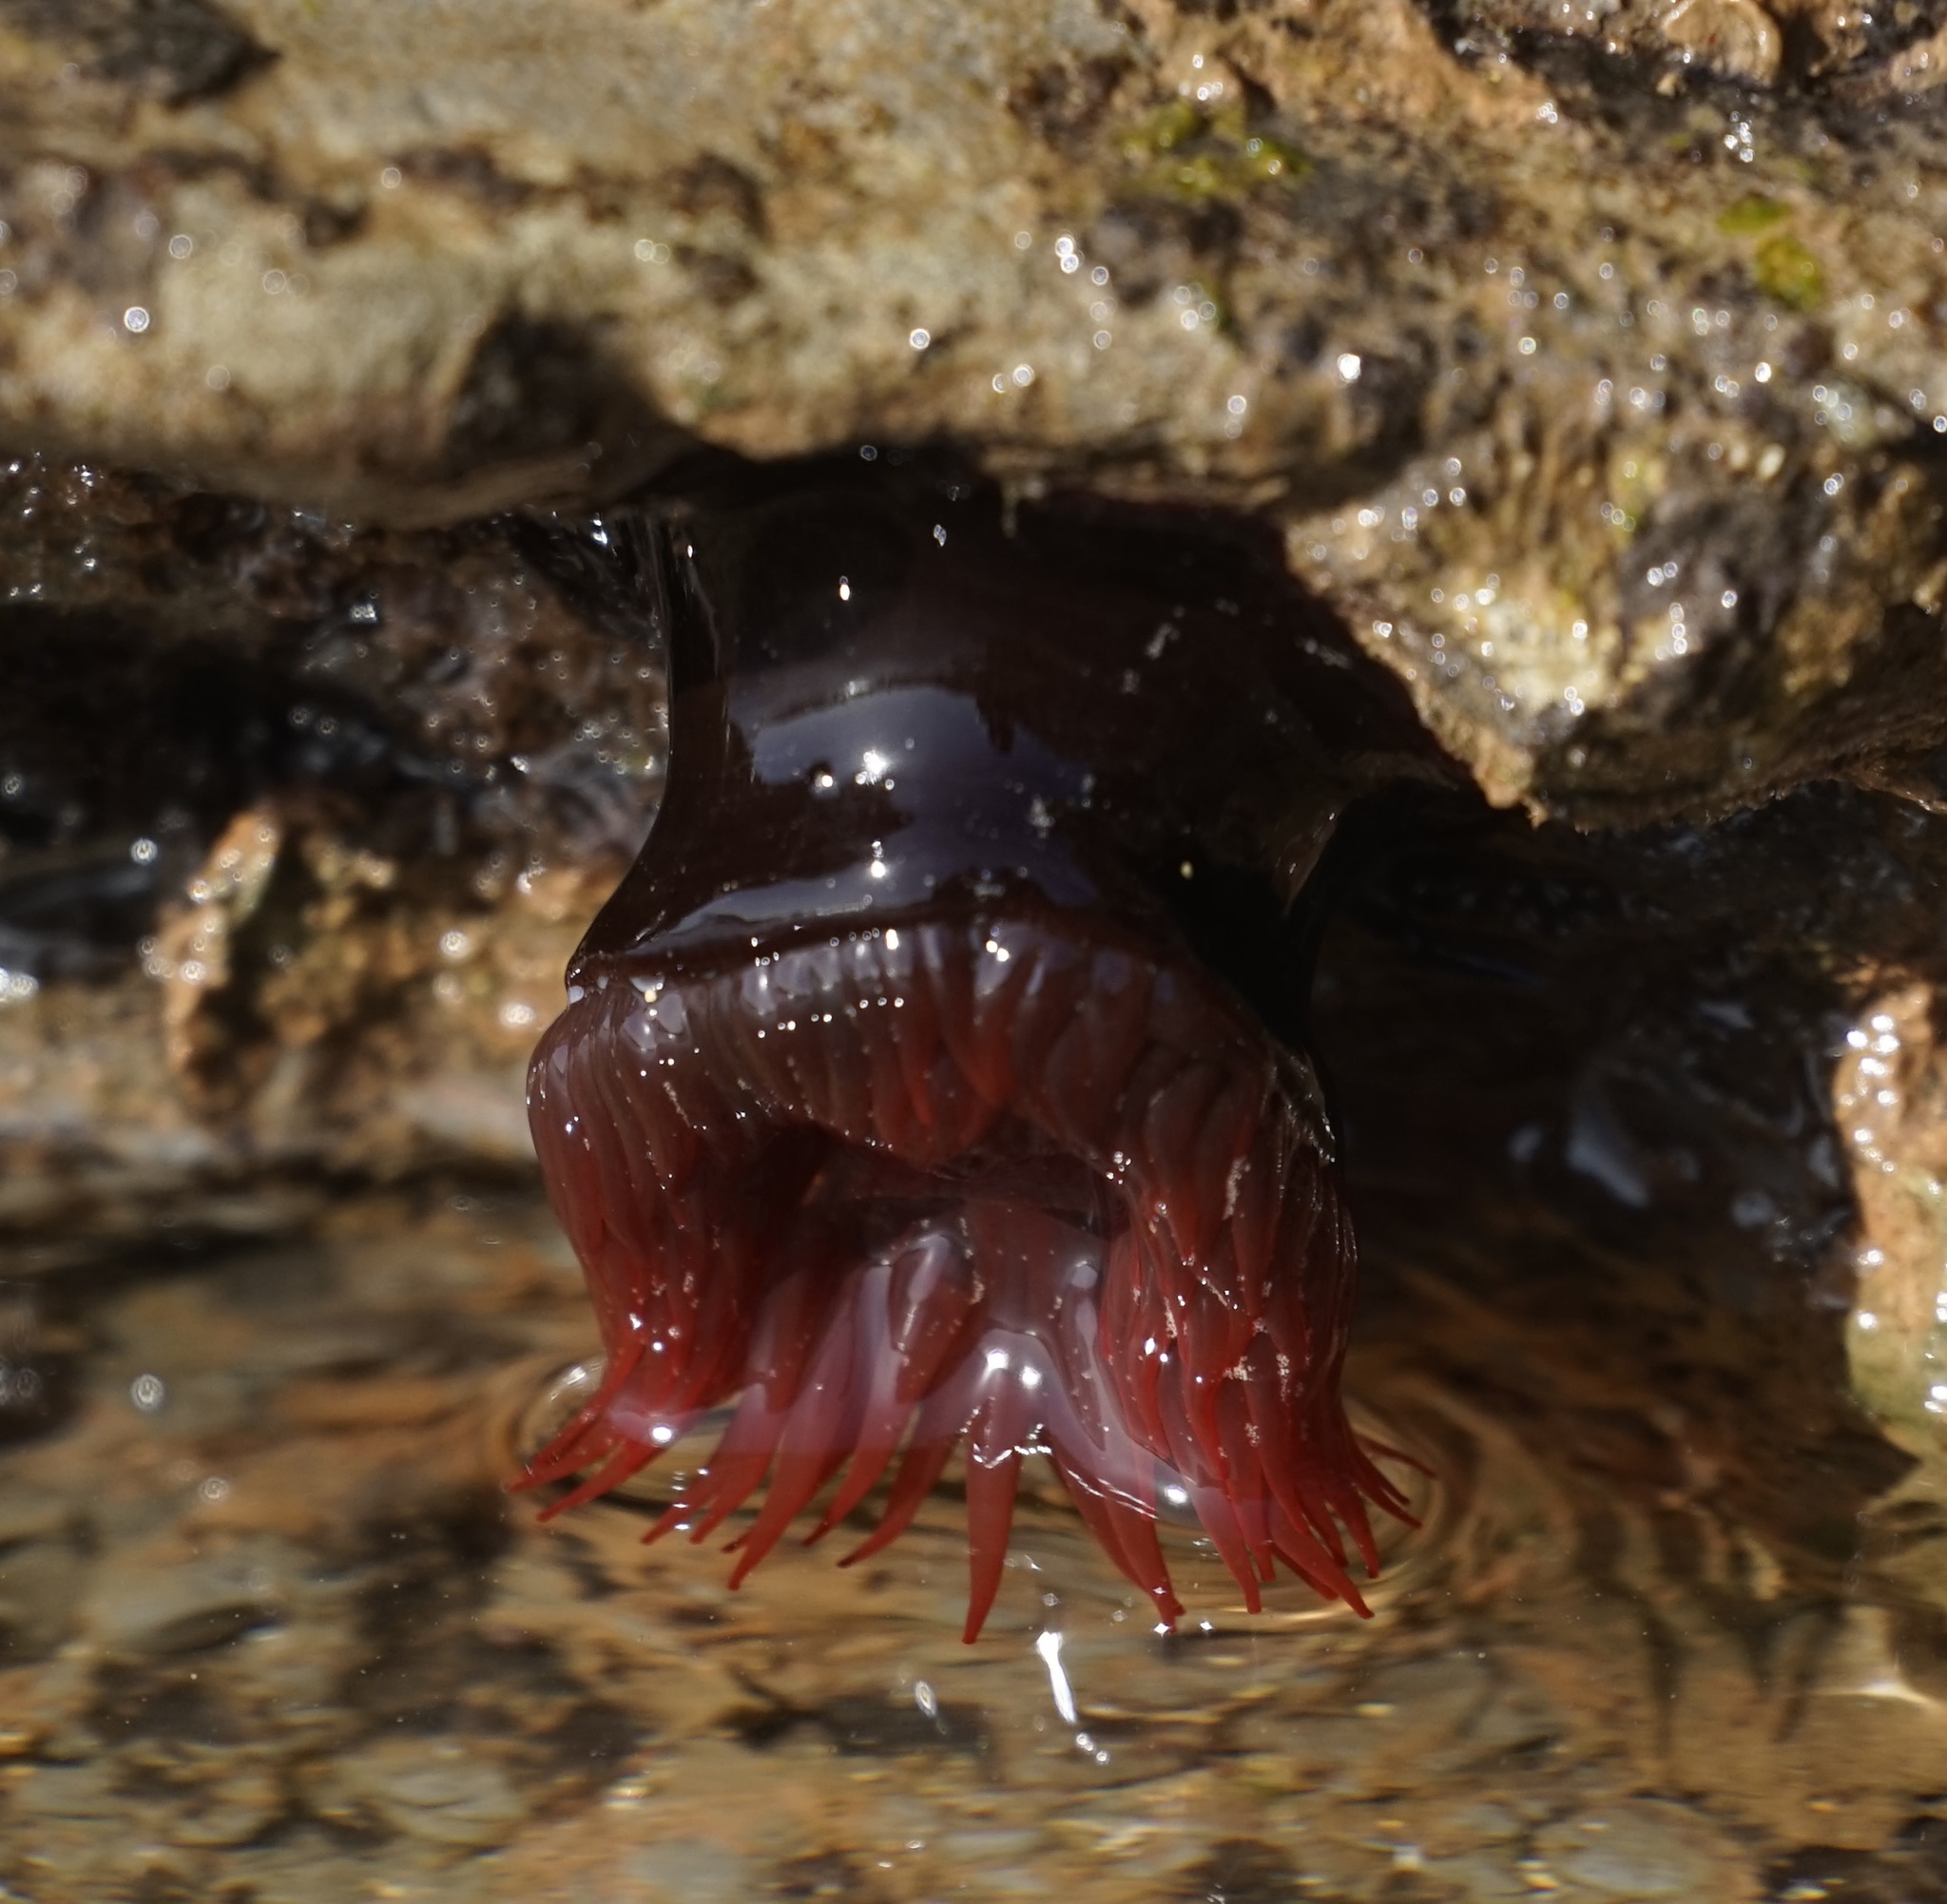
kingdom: Animalia
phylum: Cnidaria
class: Anthozoa
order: Actiniaria
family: Actiniidae
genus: Actinia
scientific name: Actinia tenebrosa
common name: Waratah anemone
